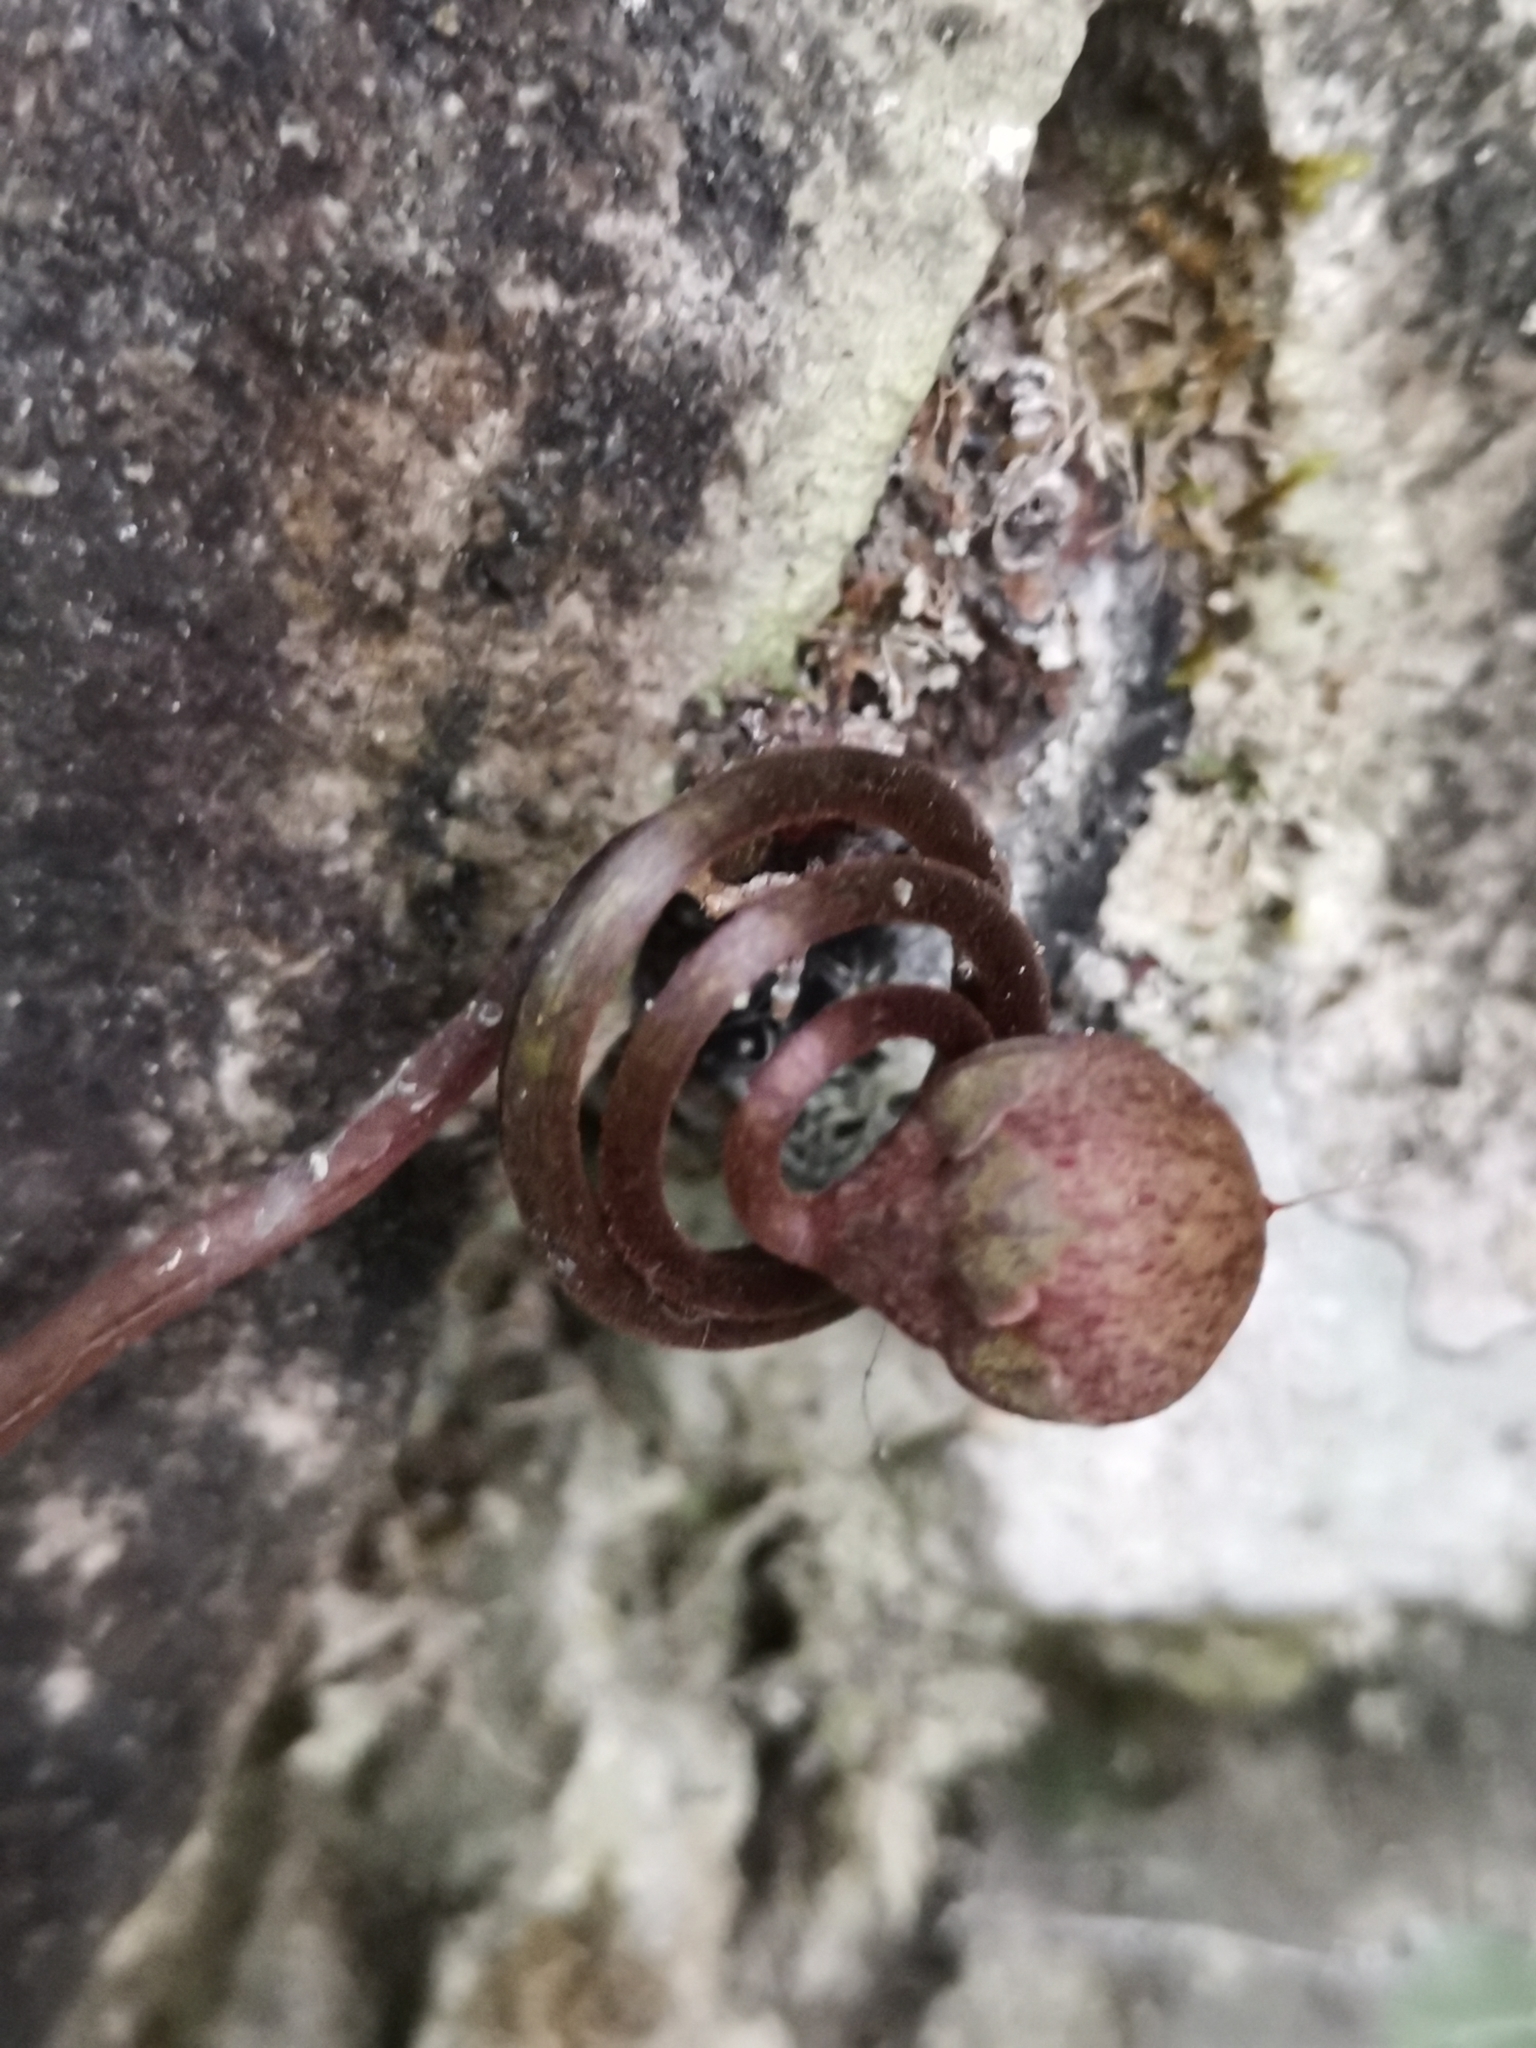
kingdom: Plantae
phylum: Tracheophyta
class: Magnoliopsida
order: Ericales
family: Primulaceae
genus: Cyclamen
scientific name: Cyclamen purpurascens
